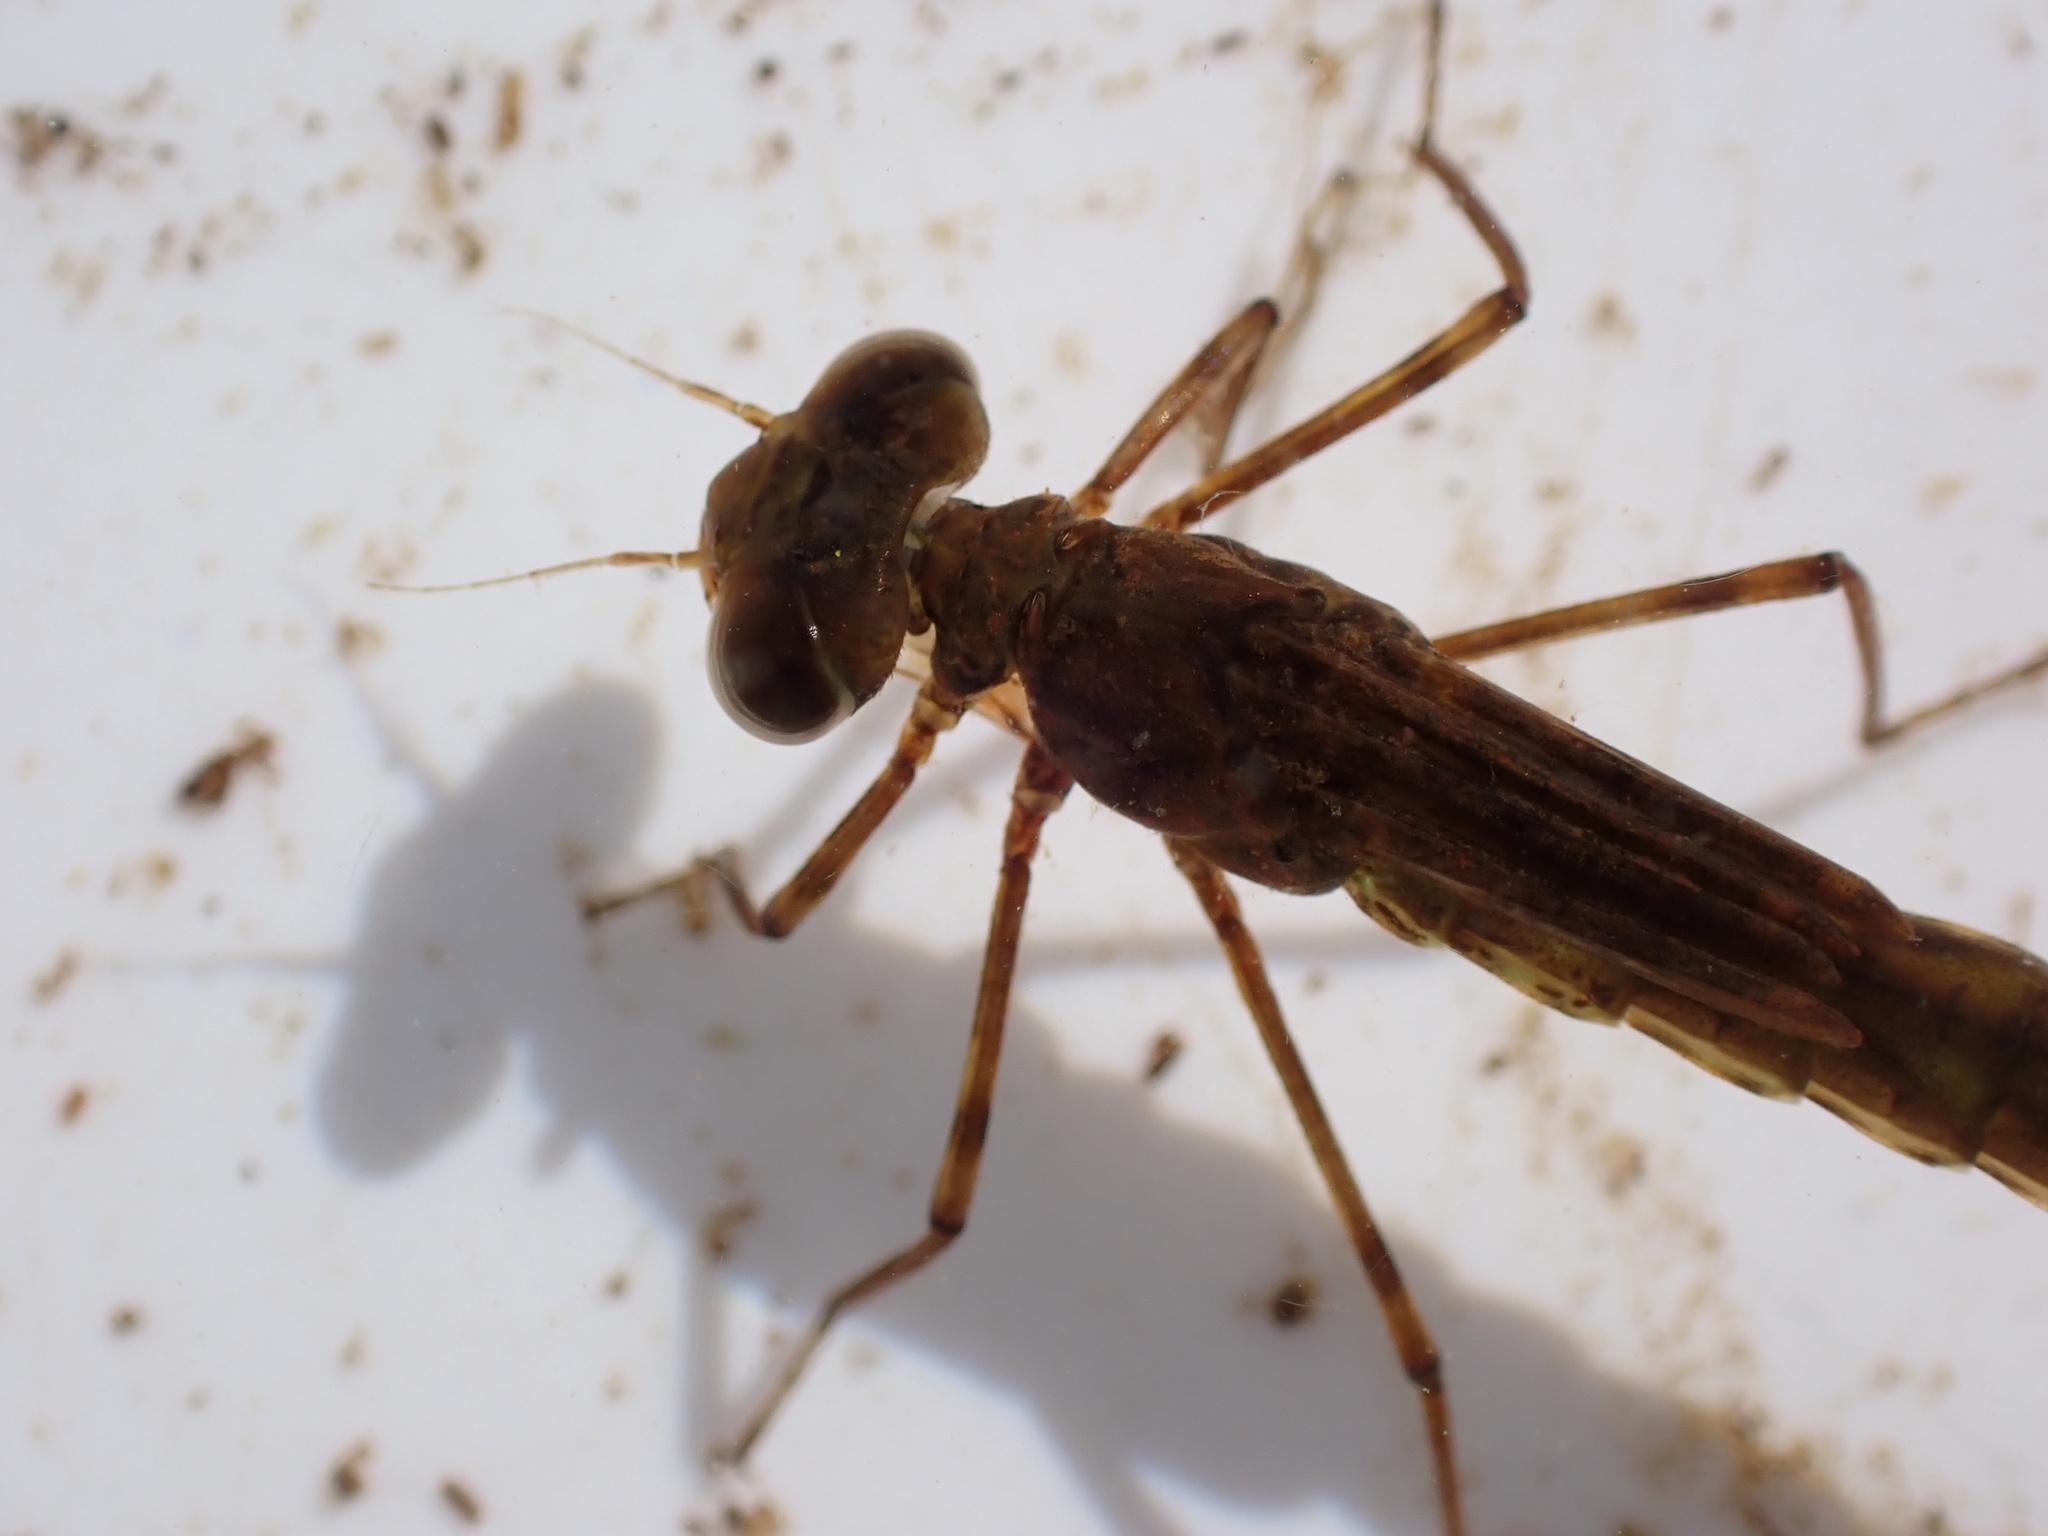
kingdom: Animalia
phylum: Arthropoda
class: Insecta
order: Odonata
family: Lestidae
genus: Austrolestes
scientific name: Austrolestes colensonis
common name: Blue damselfly
